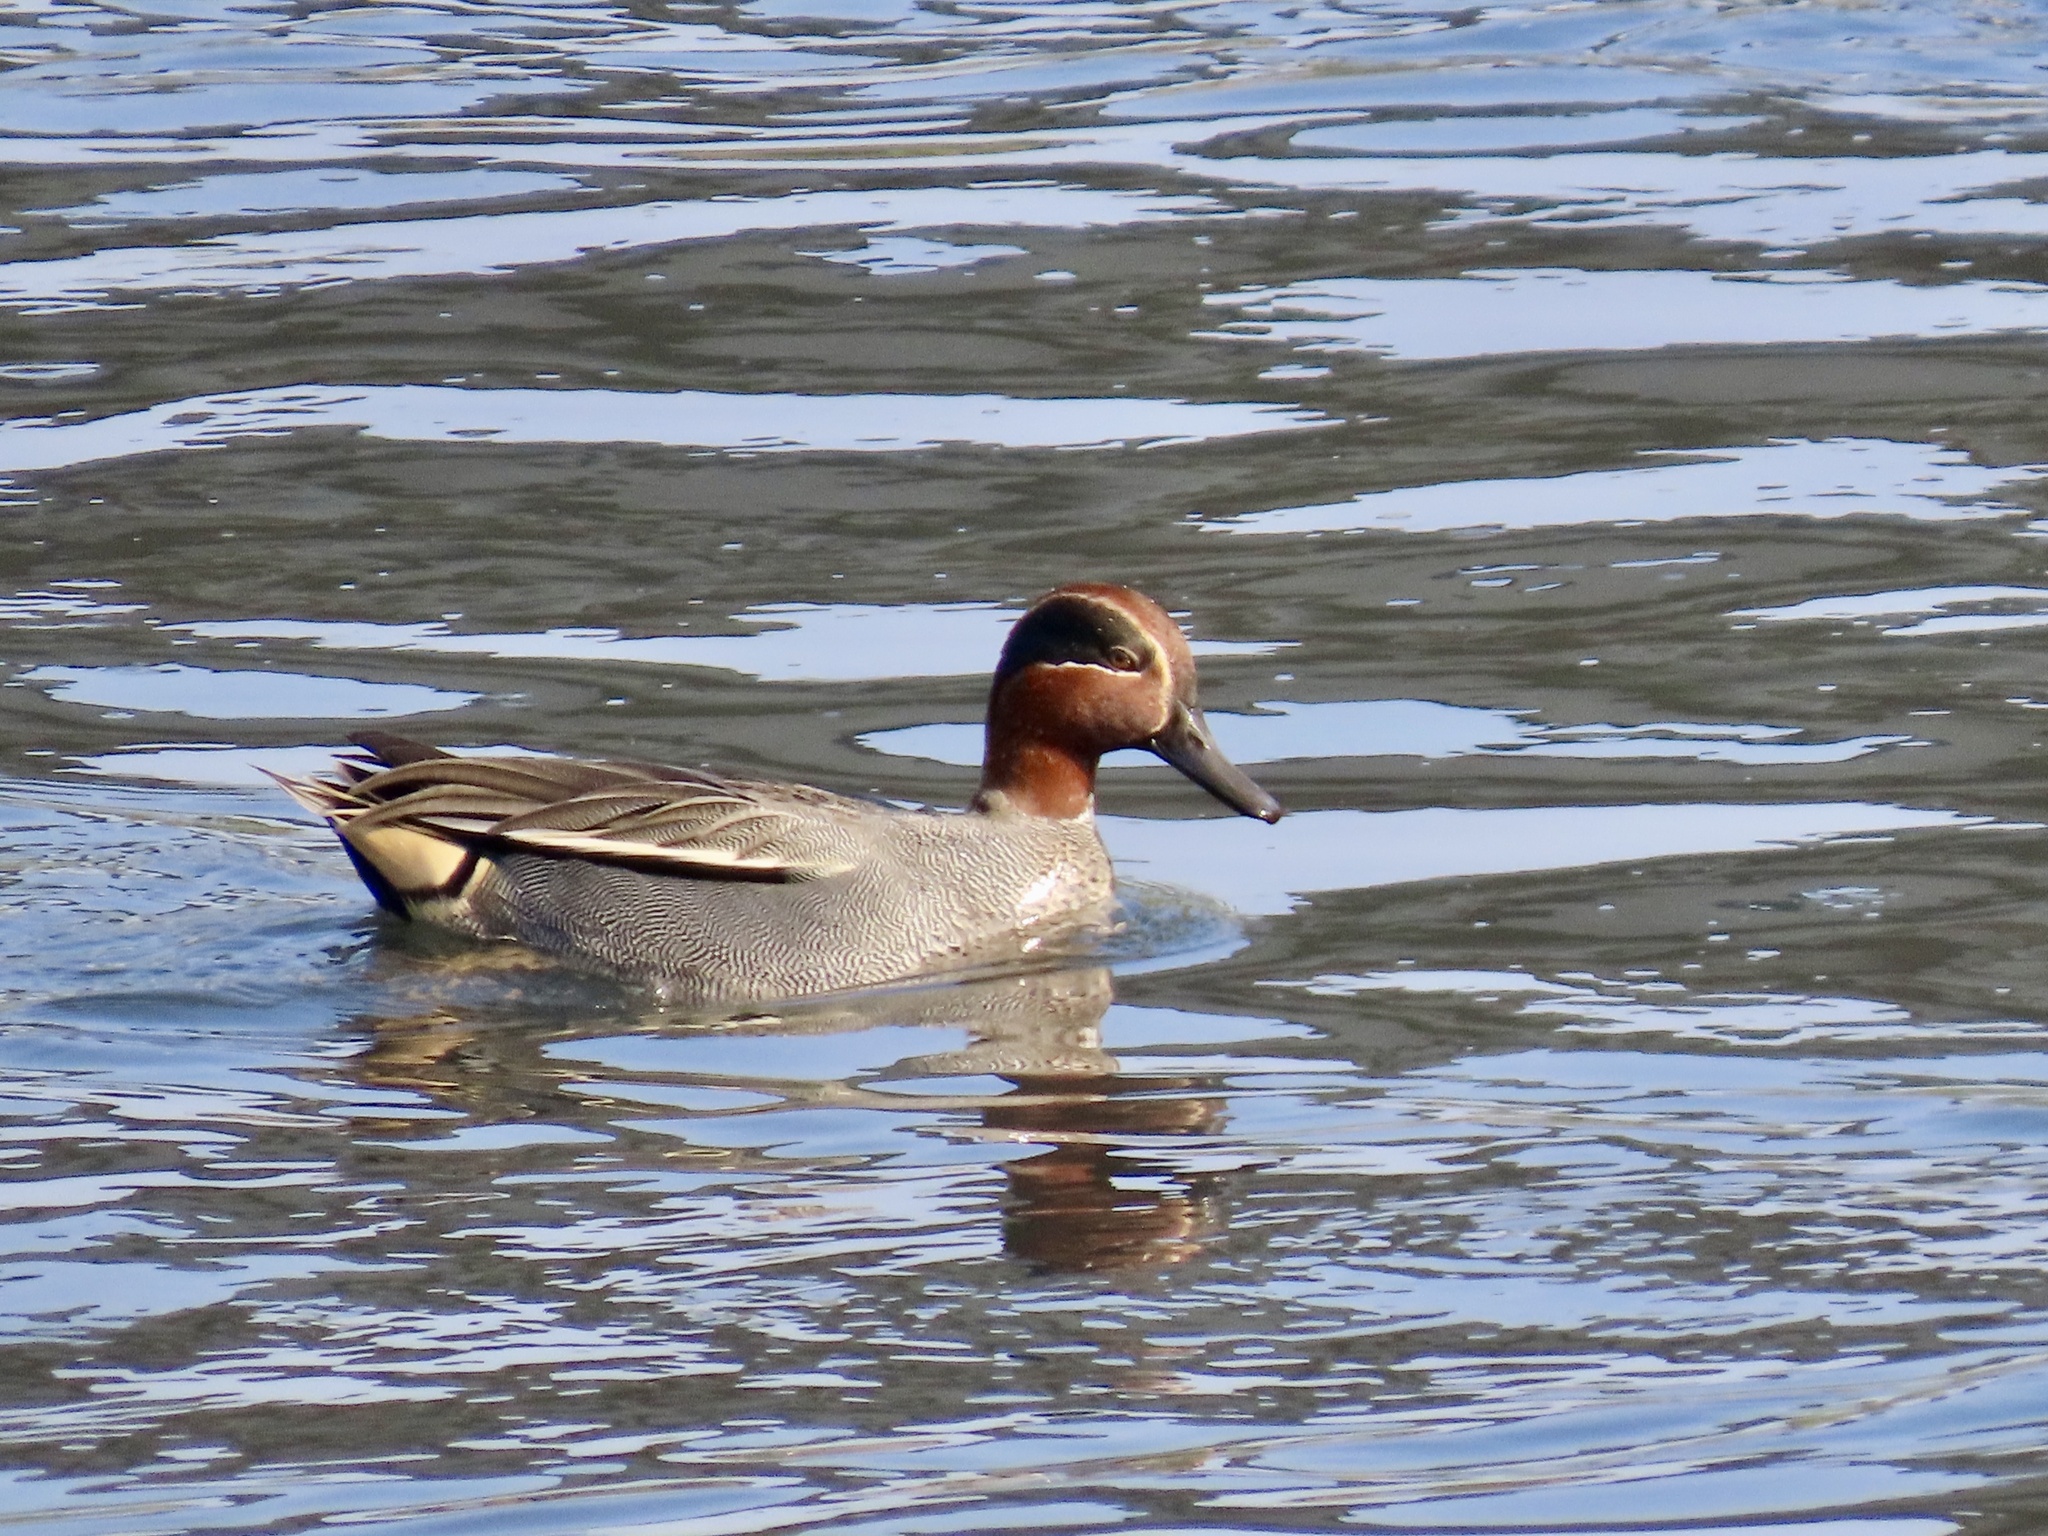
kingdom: Animalia
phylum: Chordata
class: Aves
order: Anseriformes
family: Anatidae
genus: Anas
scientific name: Anas crecca
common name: Eurasian teal
